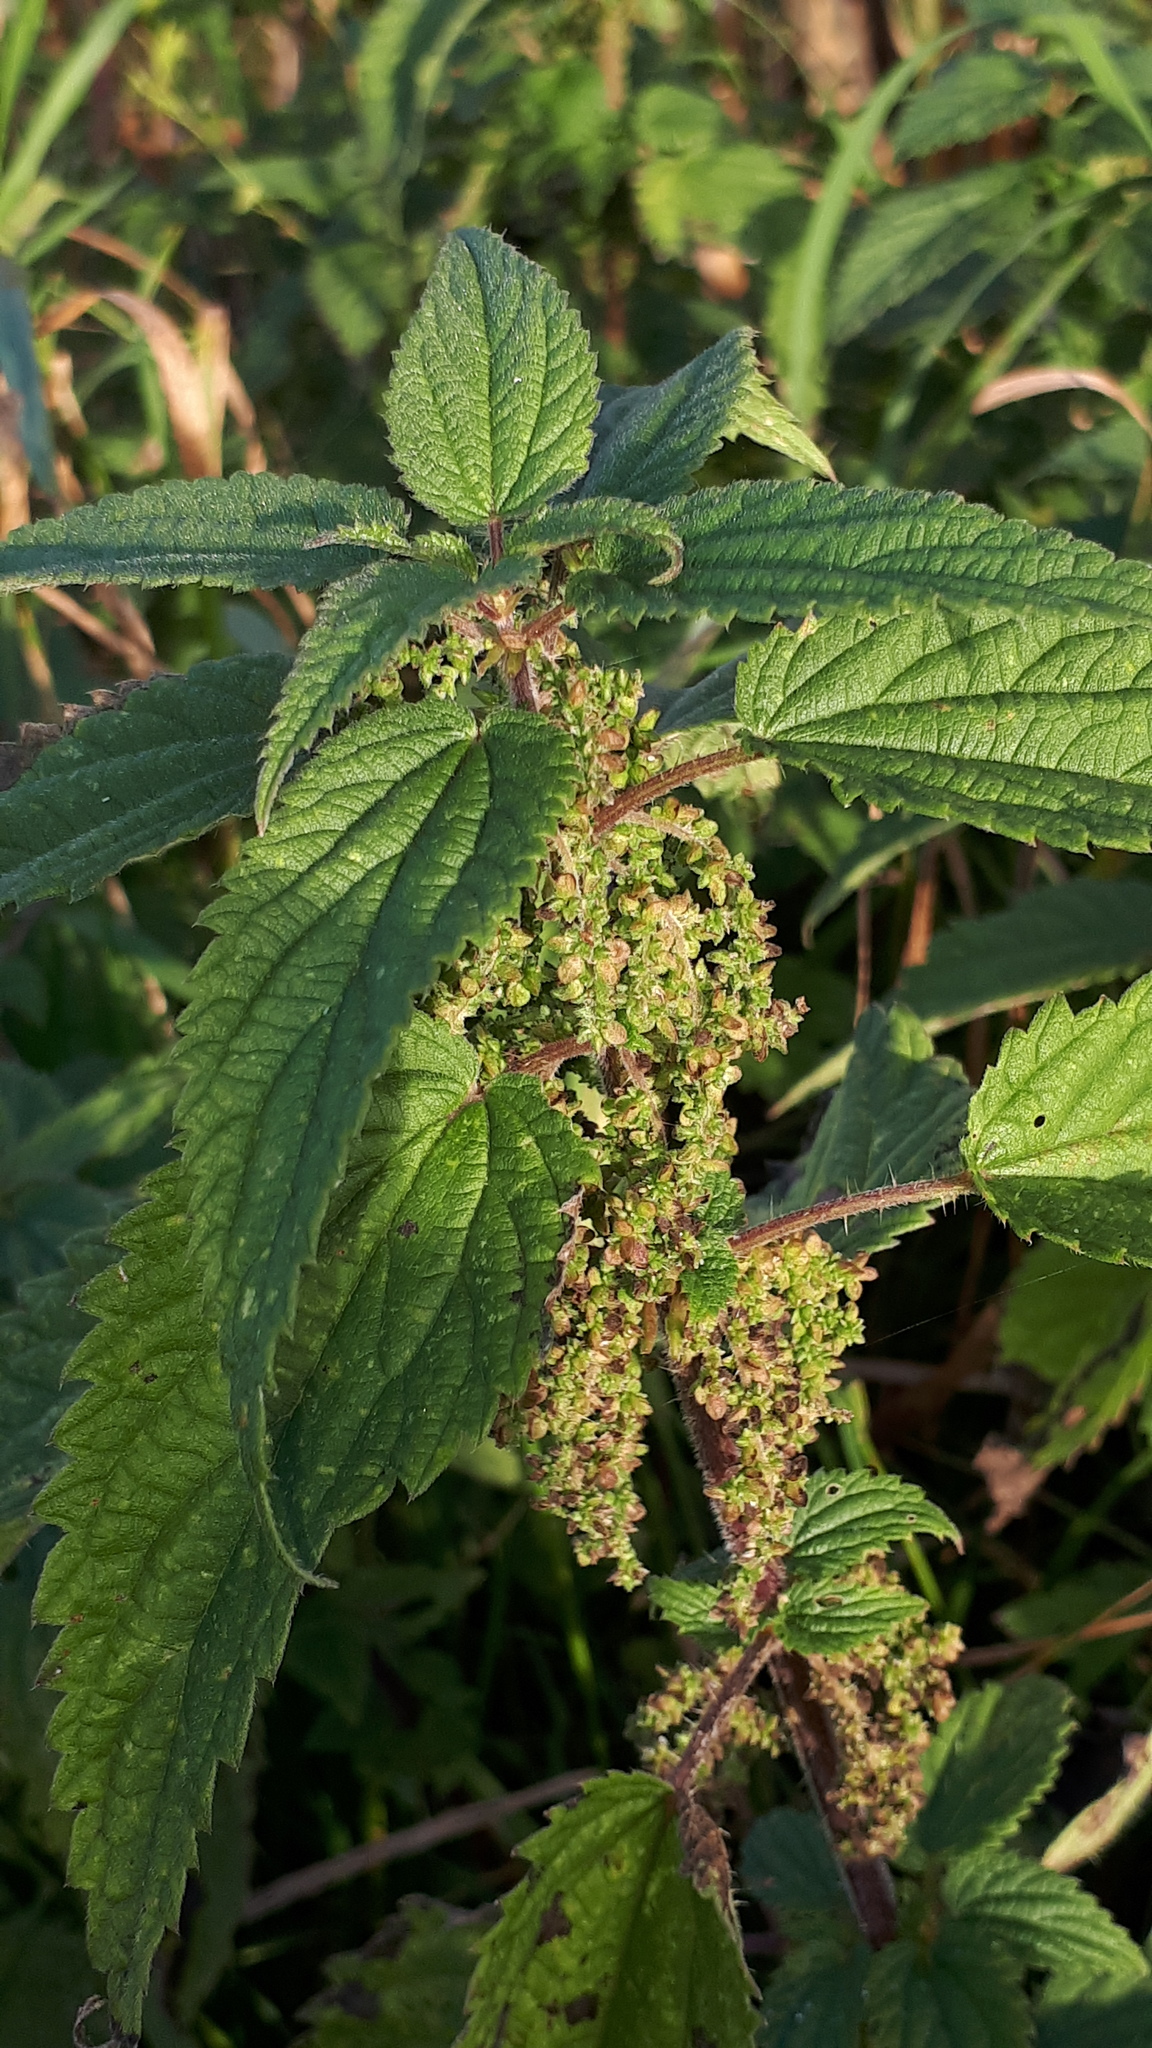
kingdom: Plantae
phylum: Tracheophyta
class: Magnoliopsida
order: Rosales
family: Urticaceae
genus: Urtica
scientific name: Urtica dioica
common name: Common nettle
